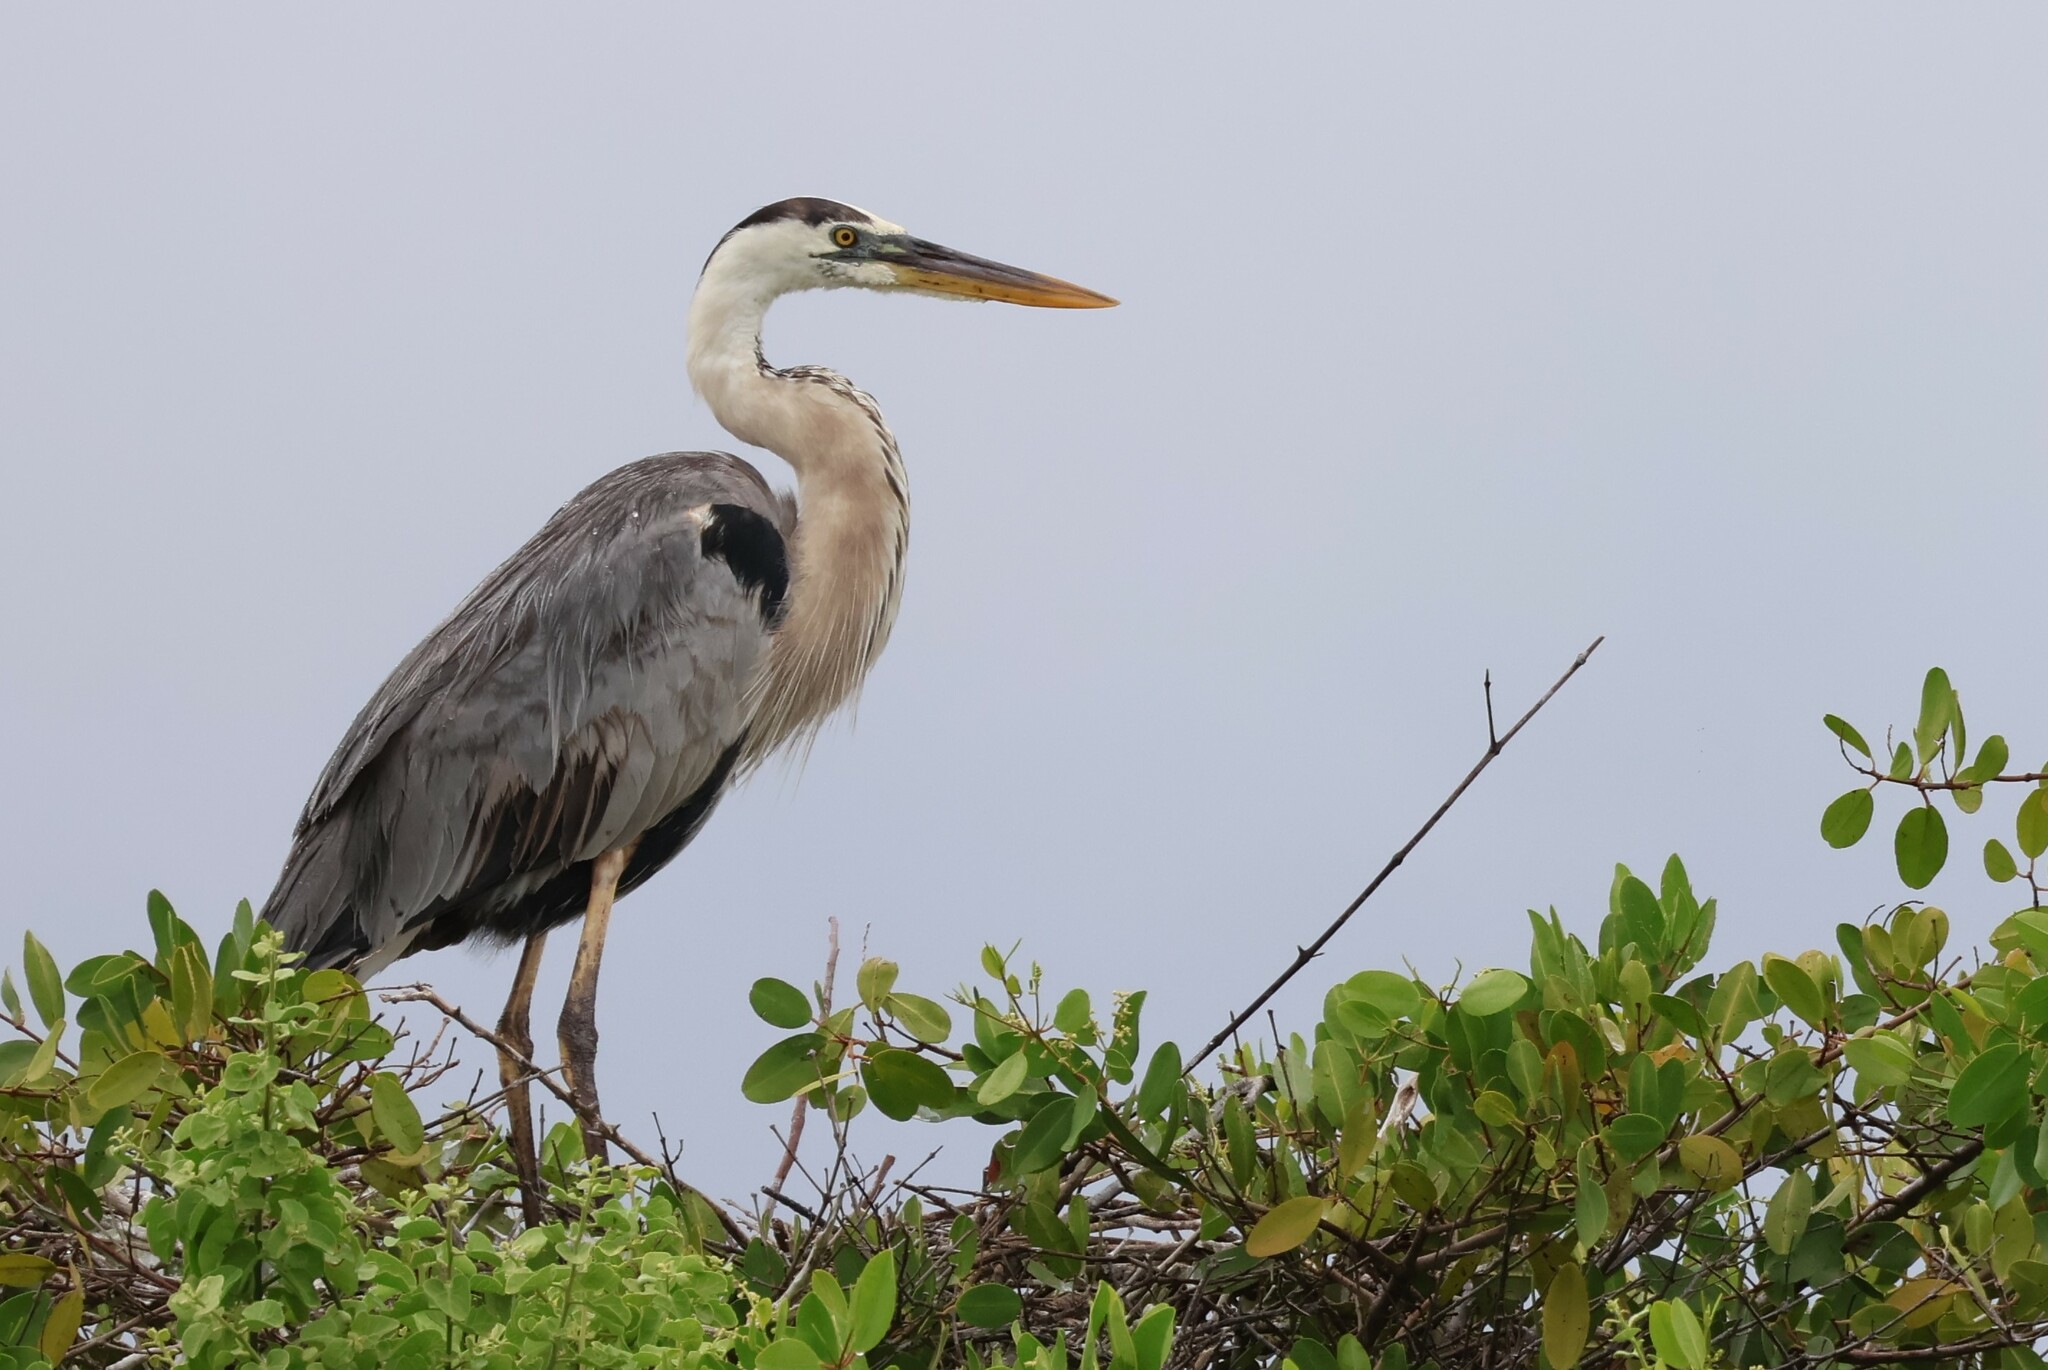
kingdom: Animalia
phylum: Chordata
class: Aves
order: Pelecaniformes
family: Ardeidae
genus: Ardea
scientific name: Ardea herodias
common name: Great blue heron
